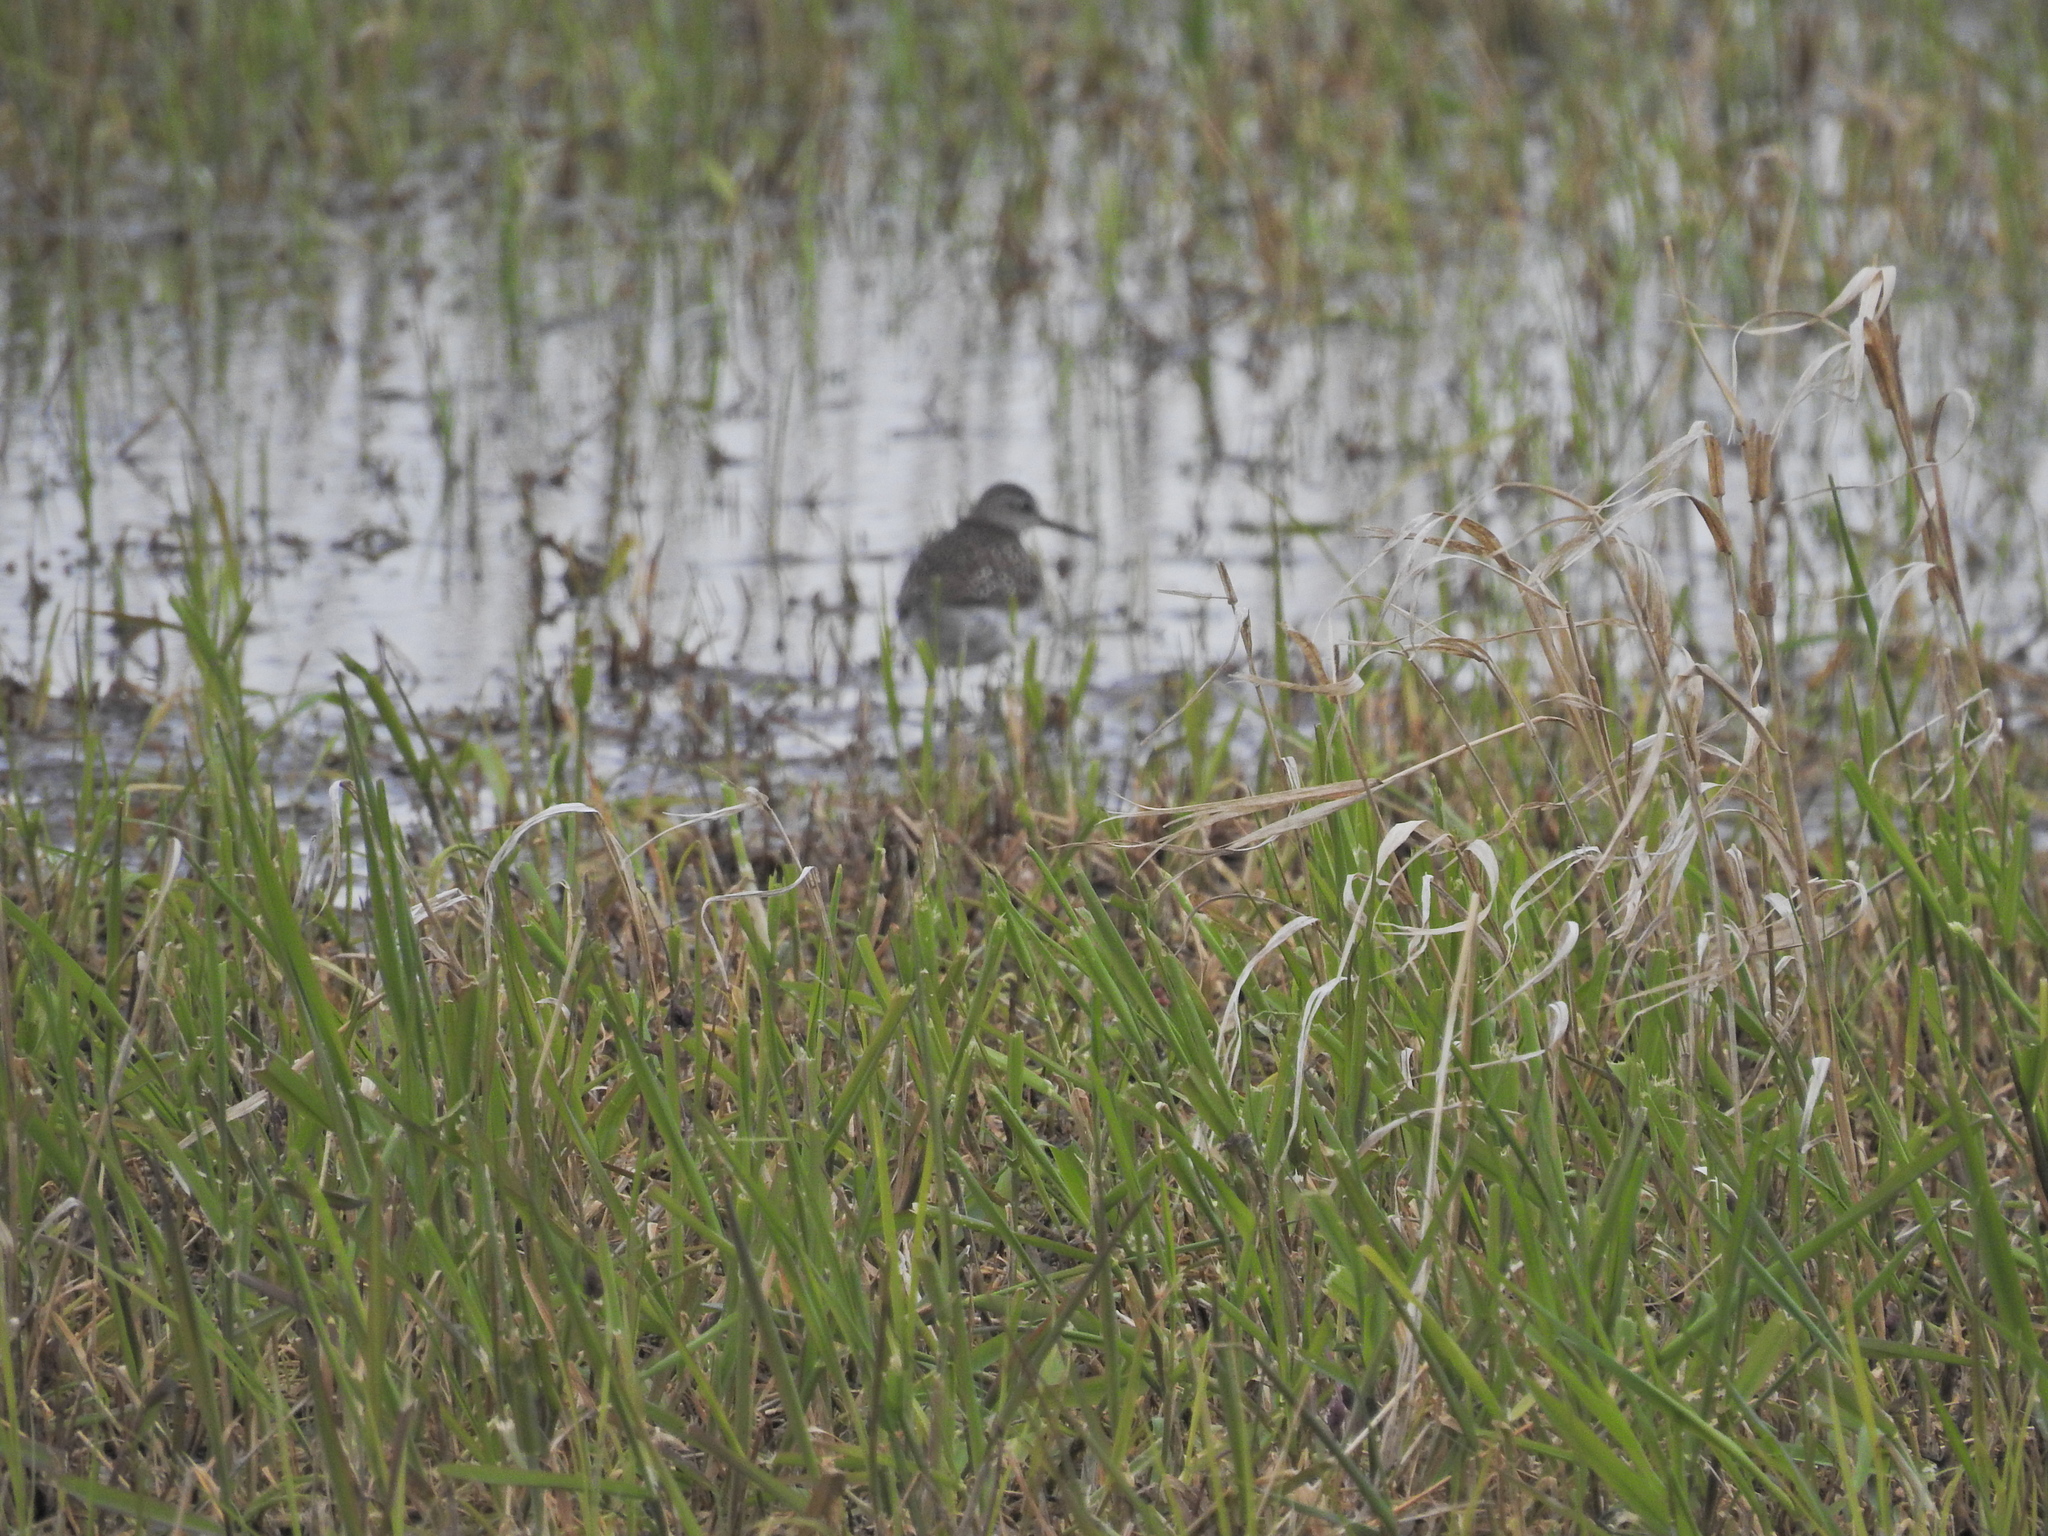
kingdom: Animalia
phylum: Chordata
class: Aves
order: Charadriiformes
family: Scolopacidae
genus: Tringa
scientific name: Tringa glareola
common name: Wood sandpiper
